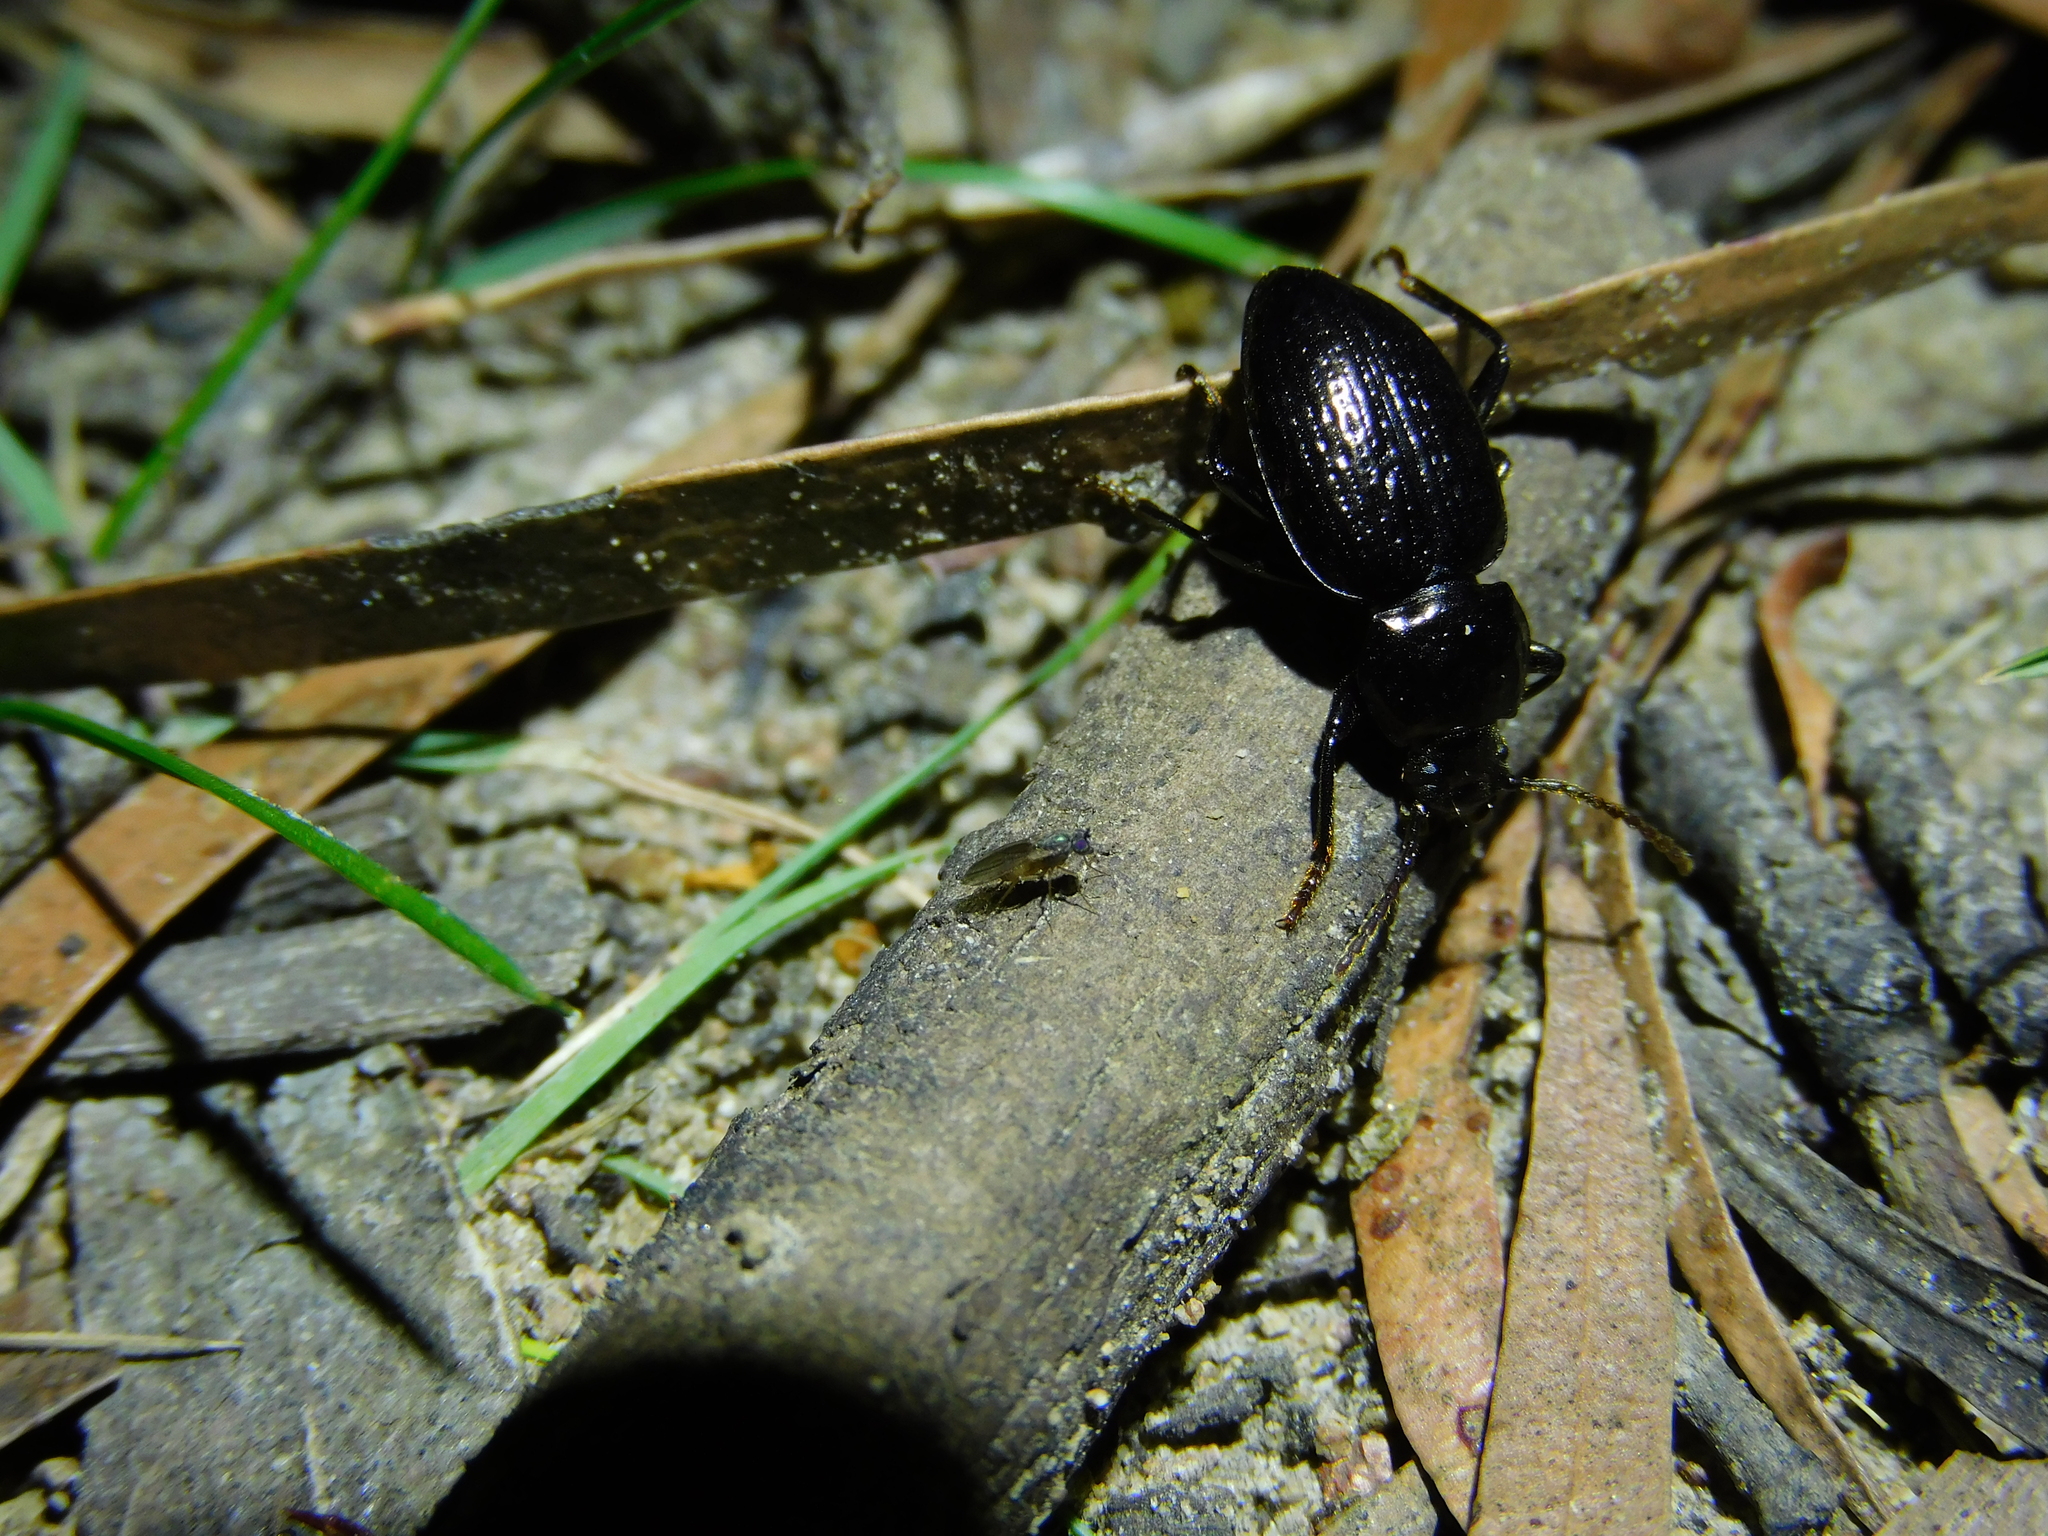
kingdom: Animalia
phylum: Arthropoda
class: Insecta
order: Coleoptera
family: Tenebrionidae
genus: Adelium
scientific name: Adelium licinoides
